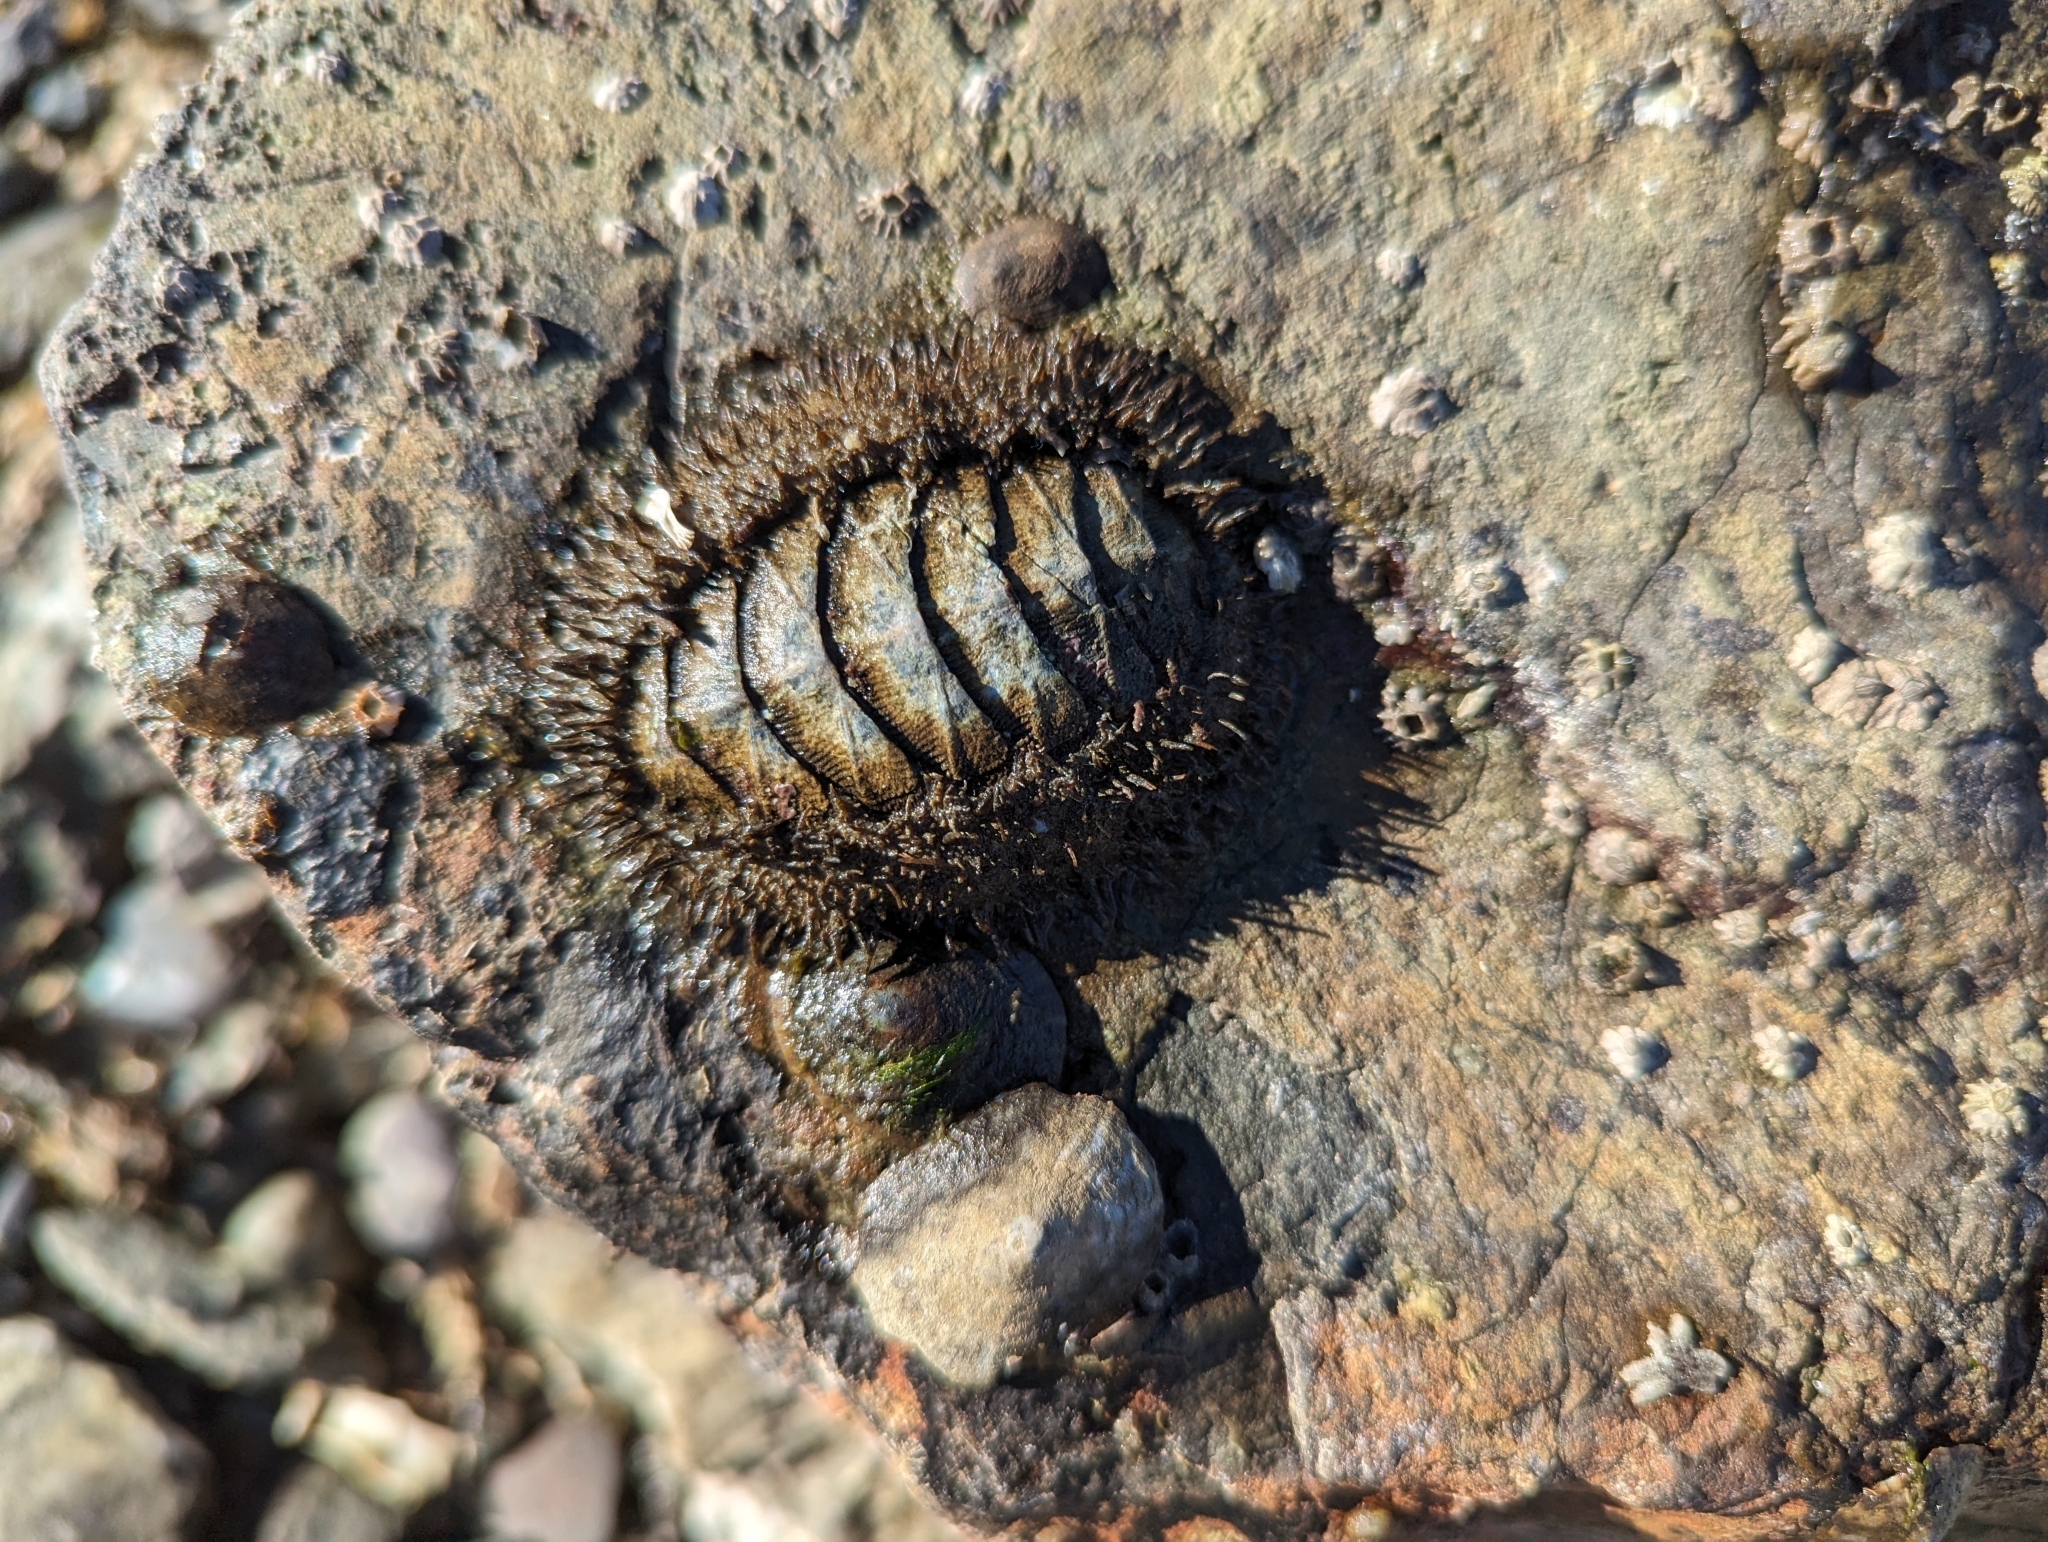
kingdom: Animalia
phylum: Mollusca
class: Polyplacophora
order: Chitonida
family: Mopaliidae
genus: Mopalia
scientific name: Mopalia muscosa
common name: Mossy chiton
